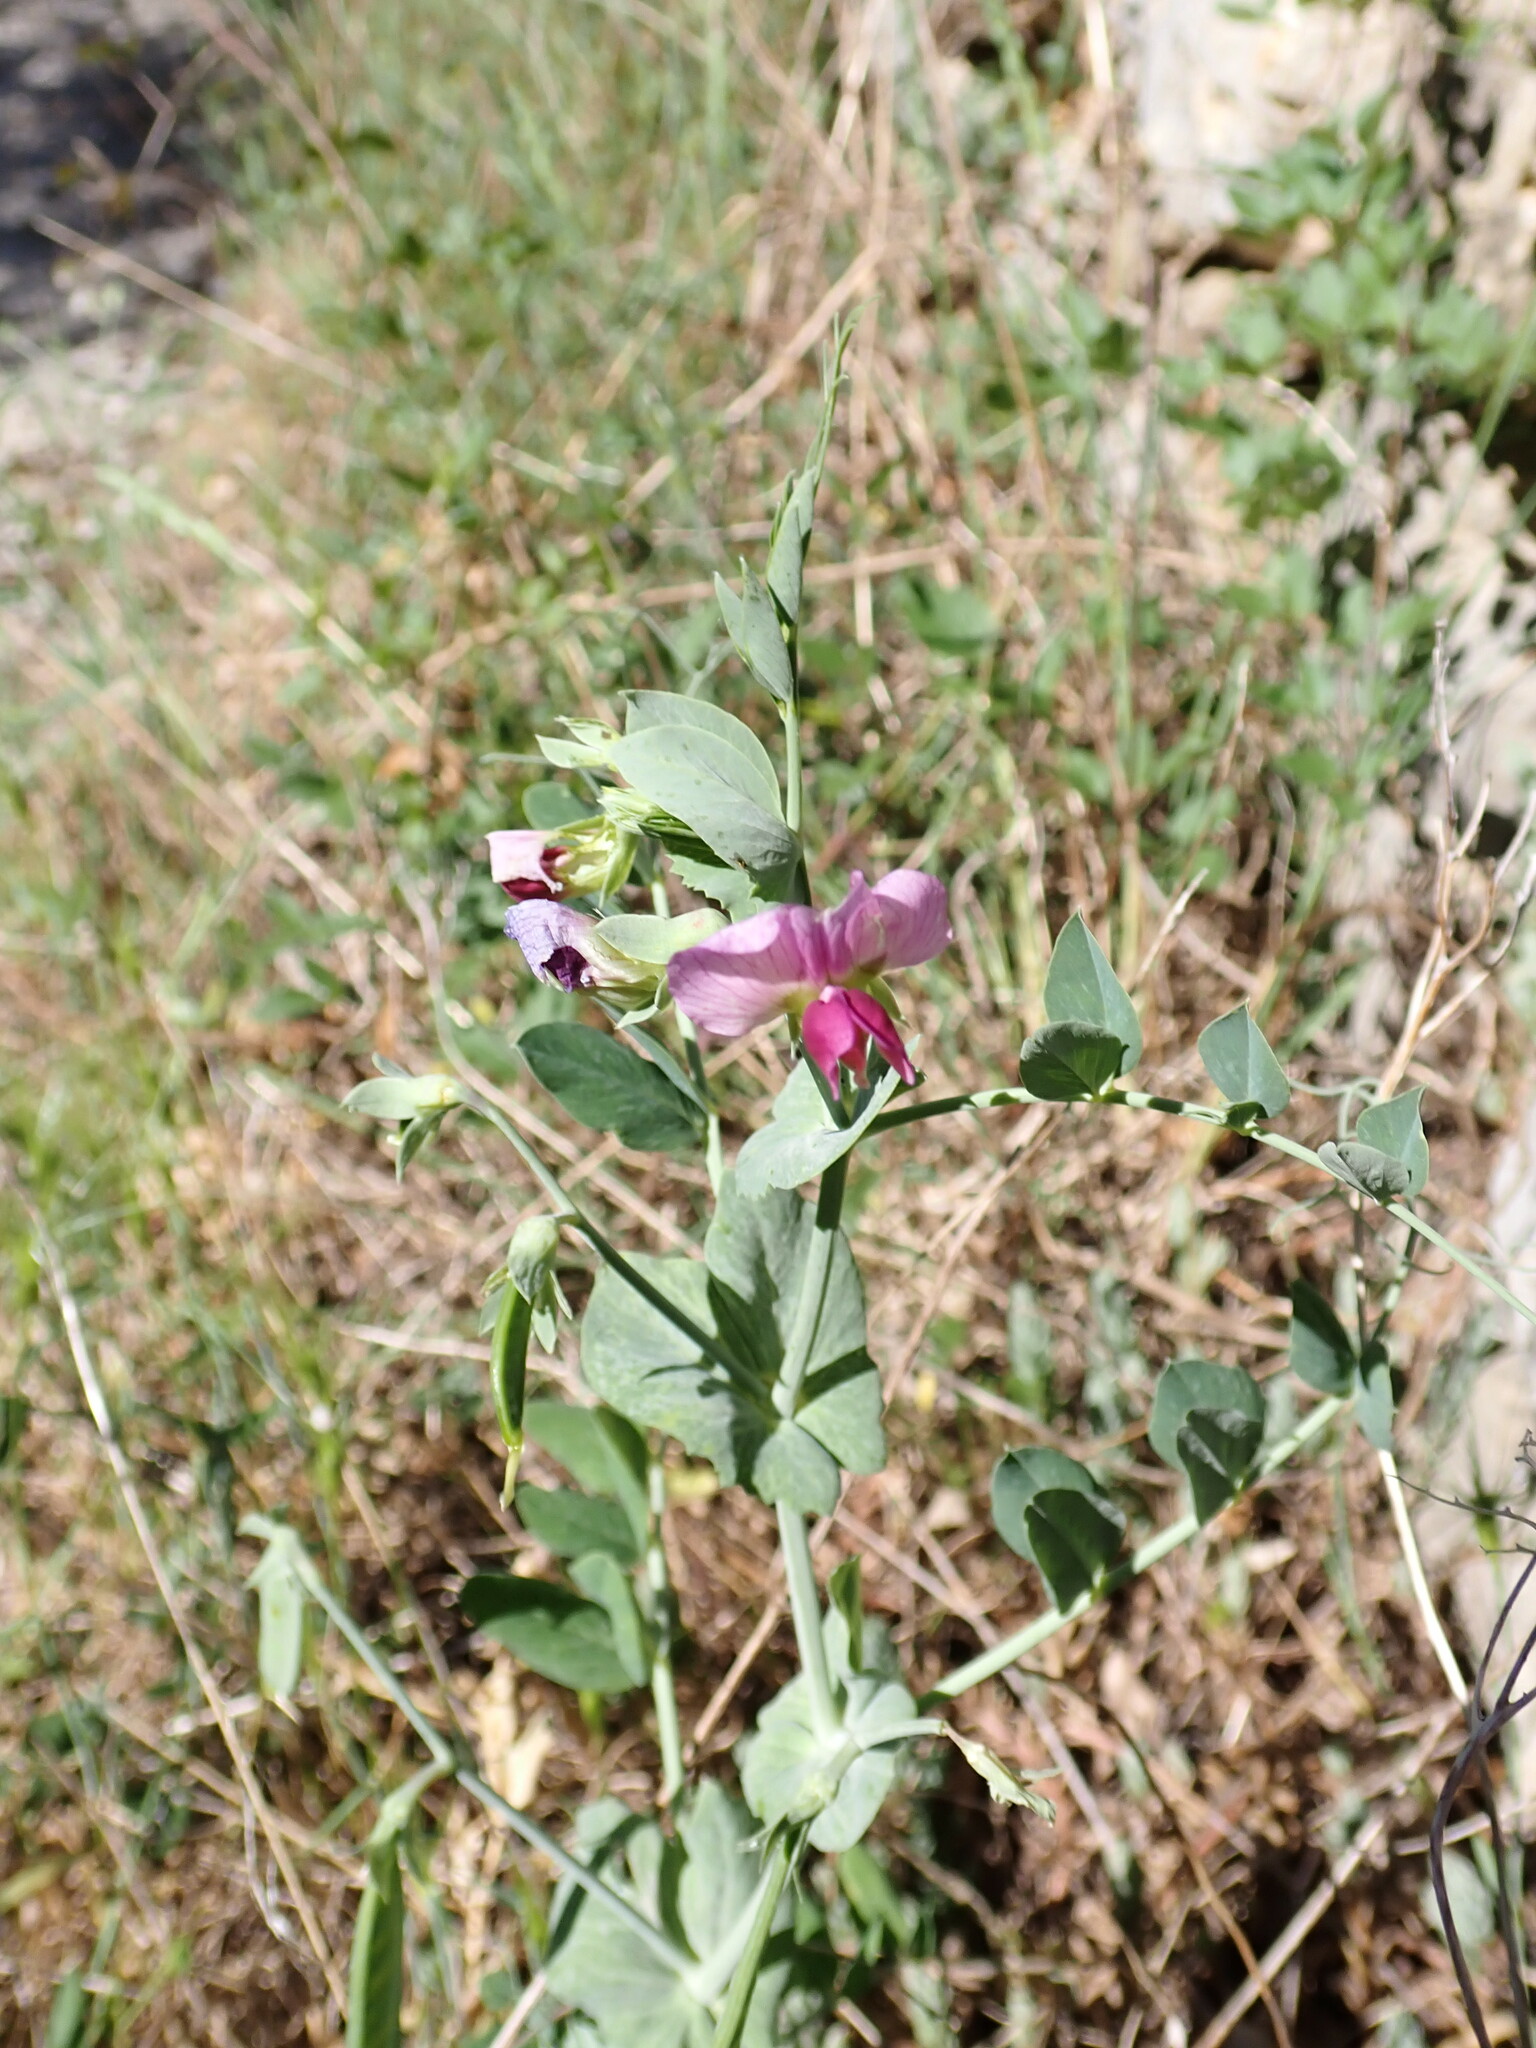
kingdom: Plantae
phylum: Tracheophyta
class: Magnoliopsida
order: Fabales
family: Fabaceae
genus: Lathyrus
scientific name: Lathyrus oleraceus
